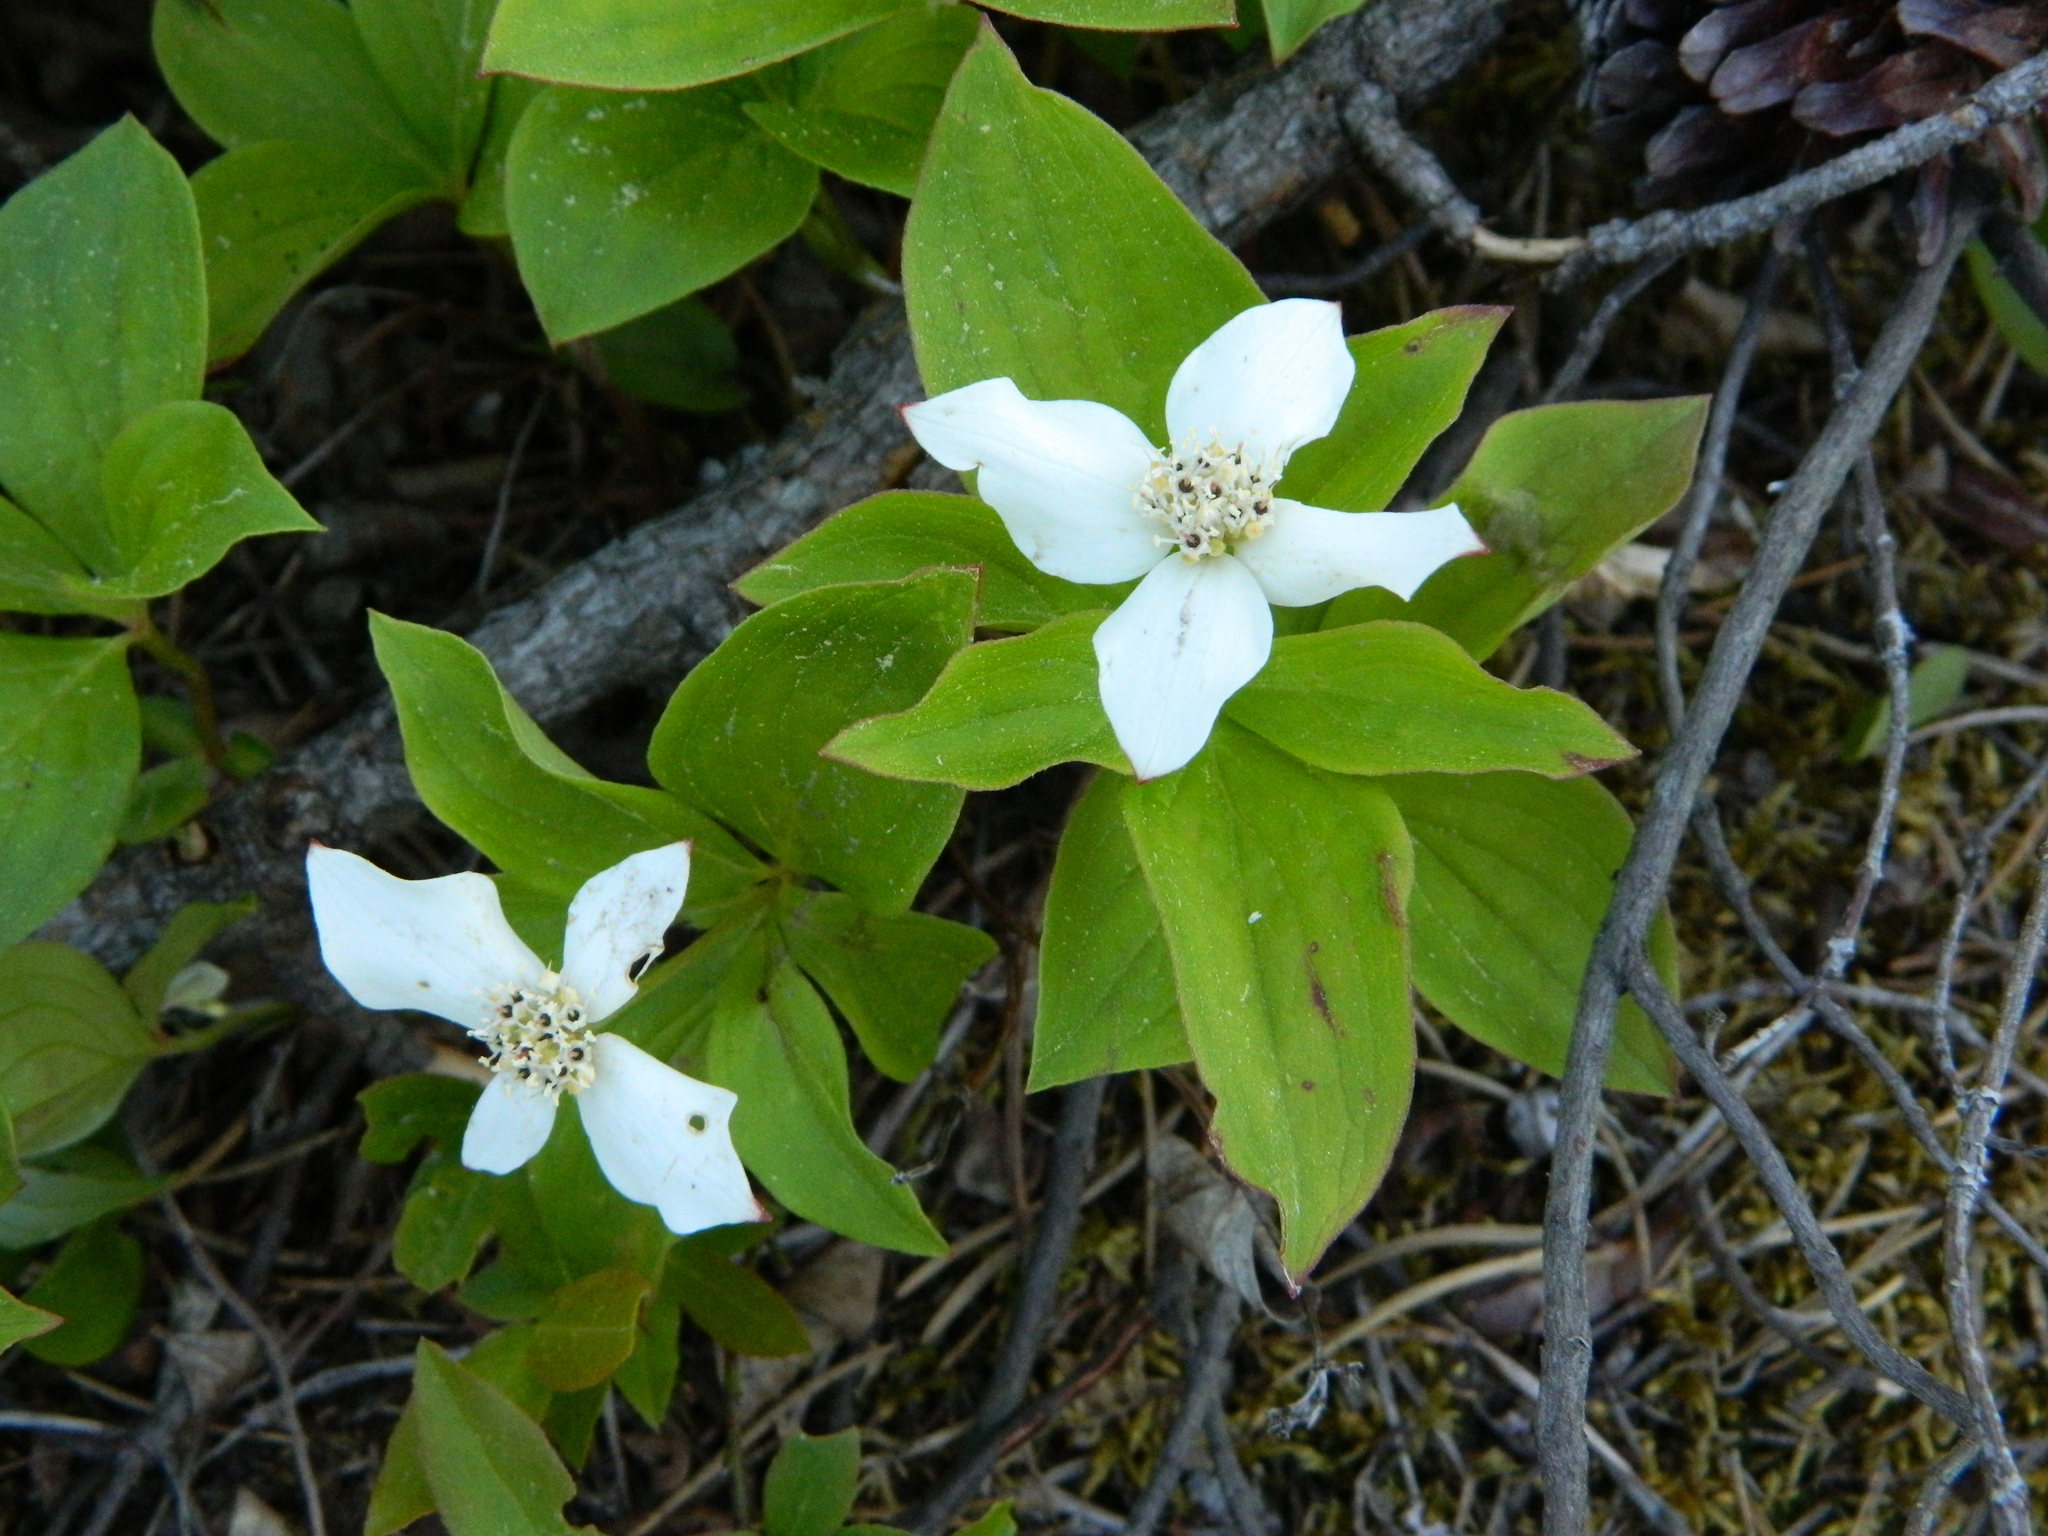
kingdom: Plantae
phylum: Tracheophyta
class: Magnoliopsida
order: Cornales
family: Cornaceae
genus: Cornus
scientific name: Cornus canadensis
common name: Creeping dogwood
